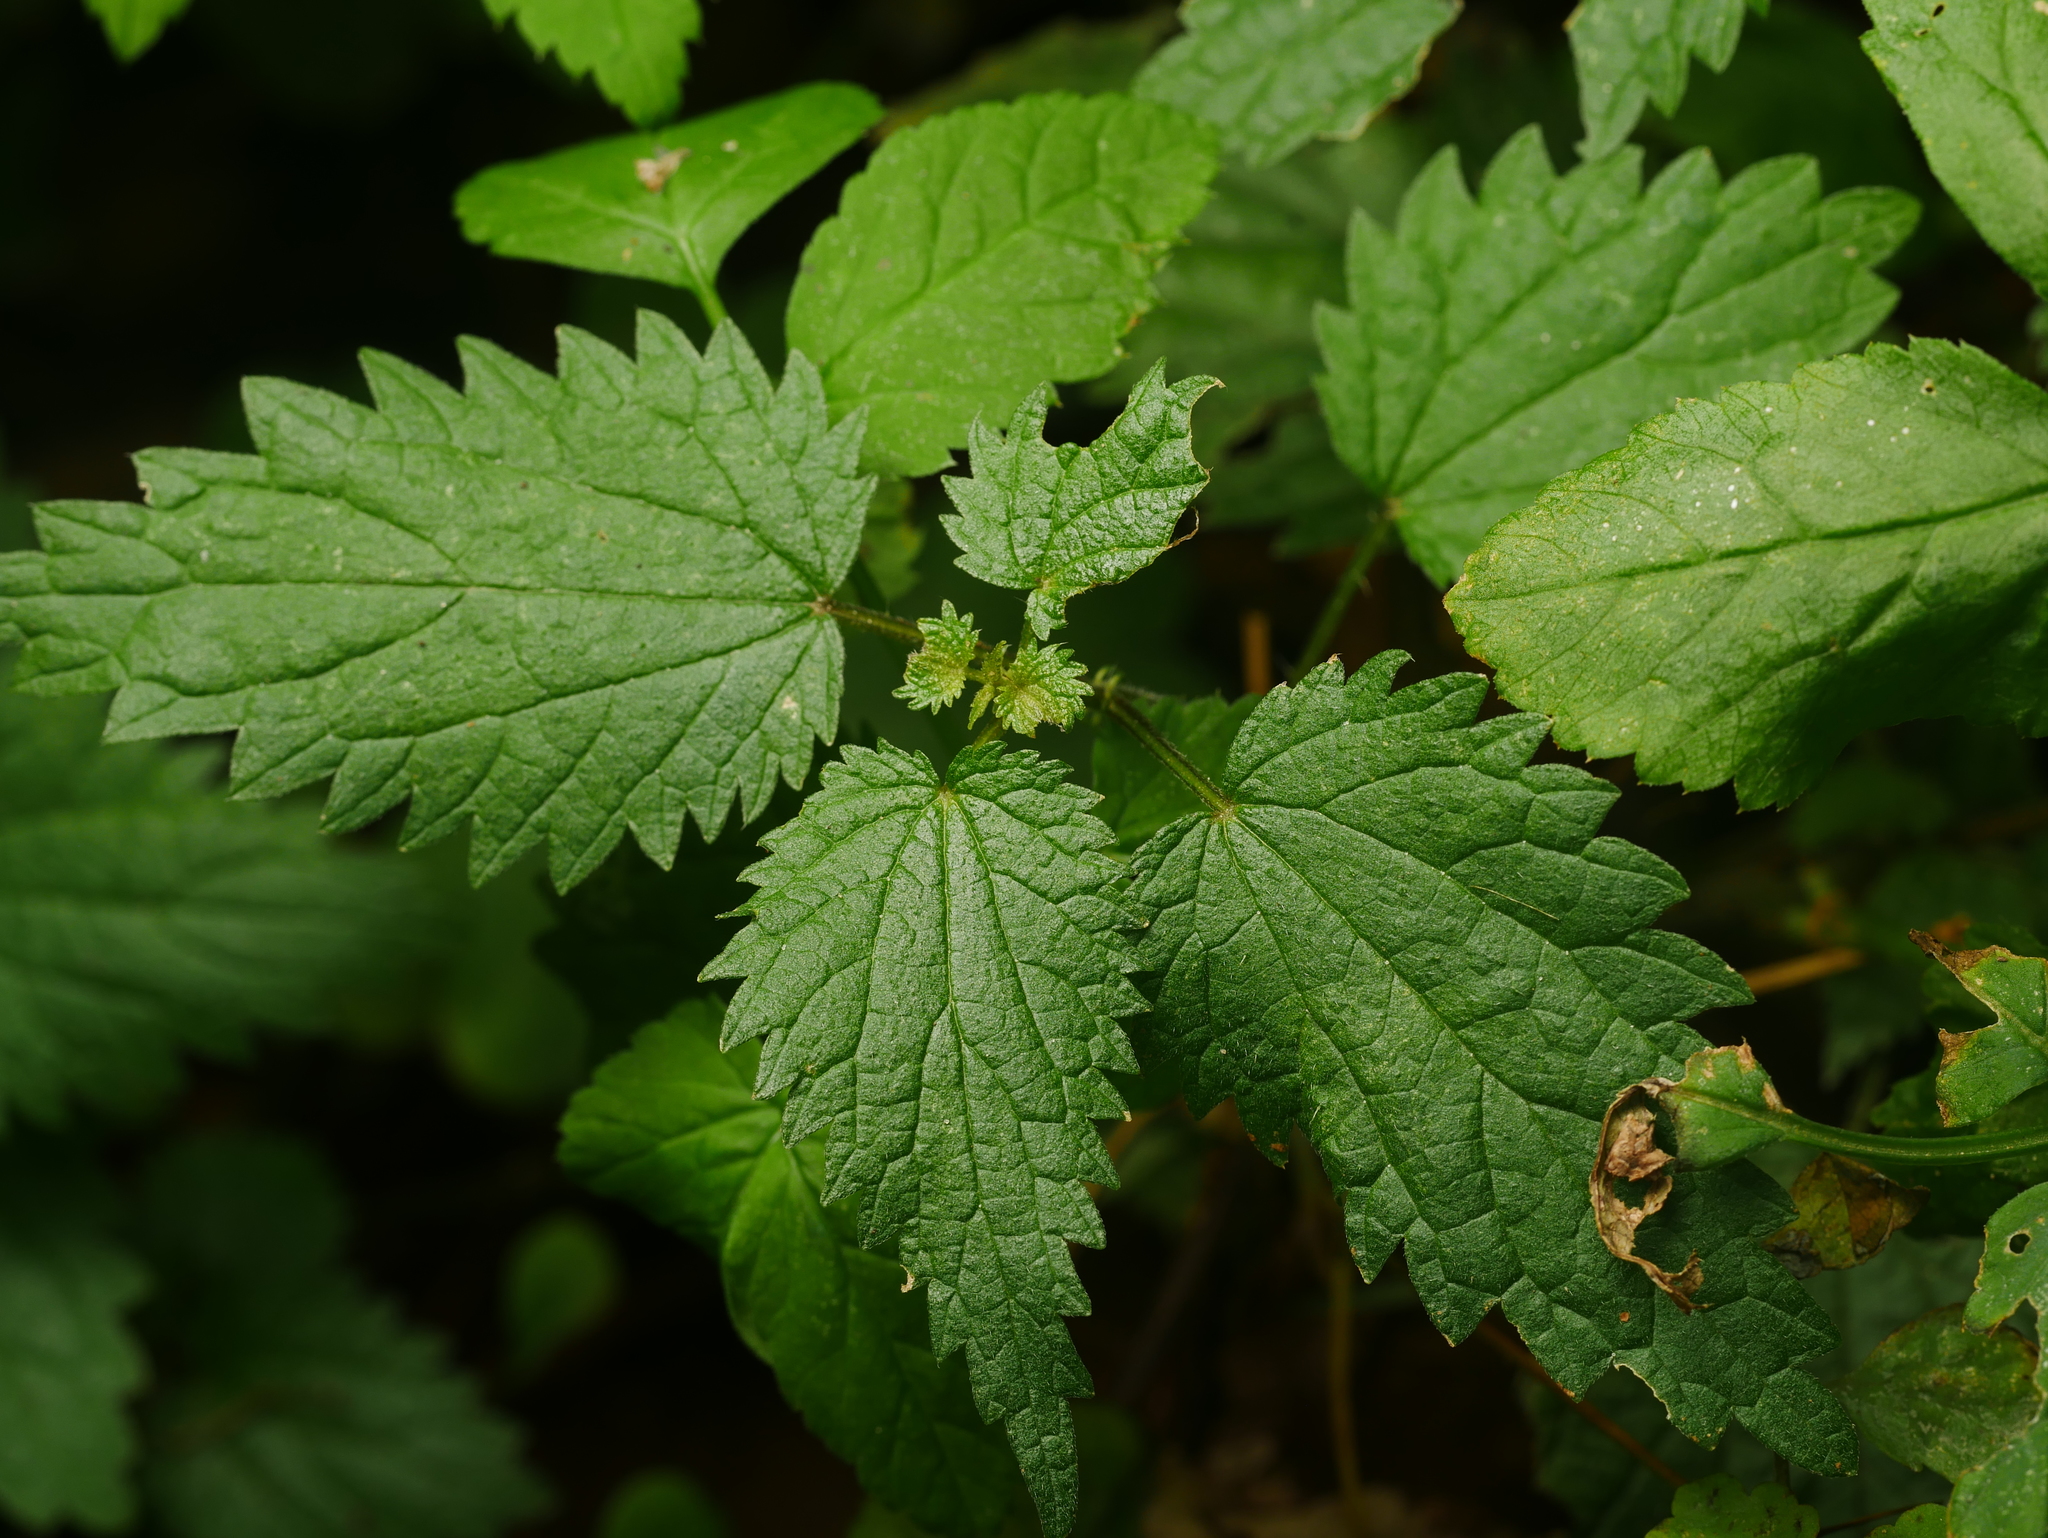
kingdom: Plantae
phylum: Tracheophyta
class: Magnoliopsida
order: Rosales
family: Urticaceae
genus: Urtica
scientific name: Urtica dioica
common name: Common nettle
